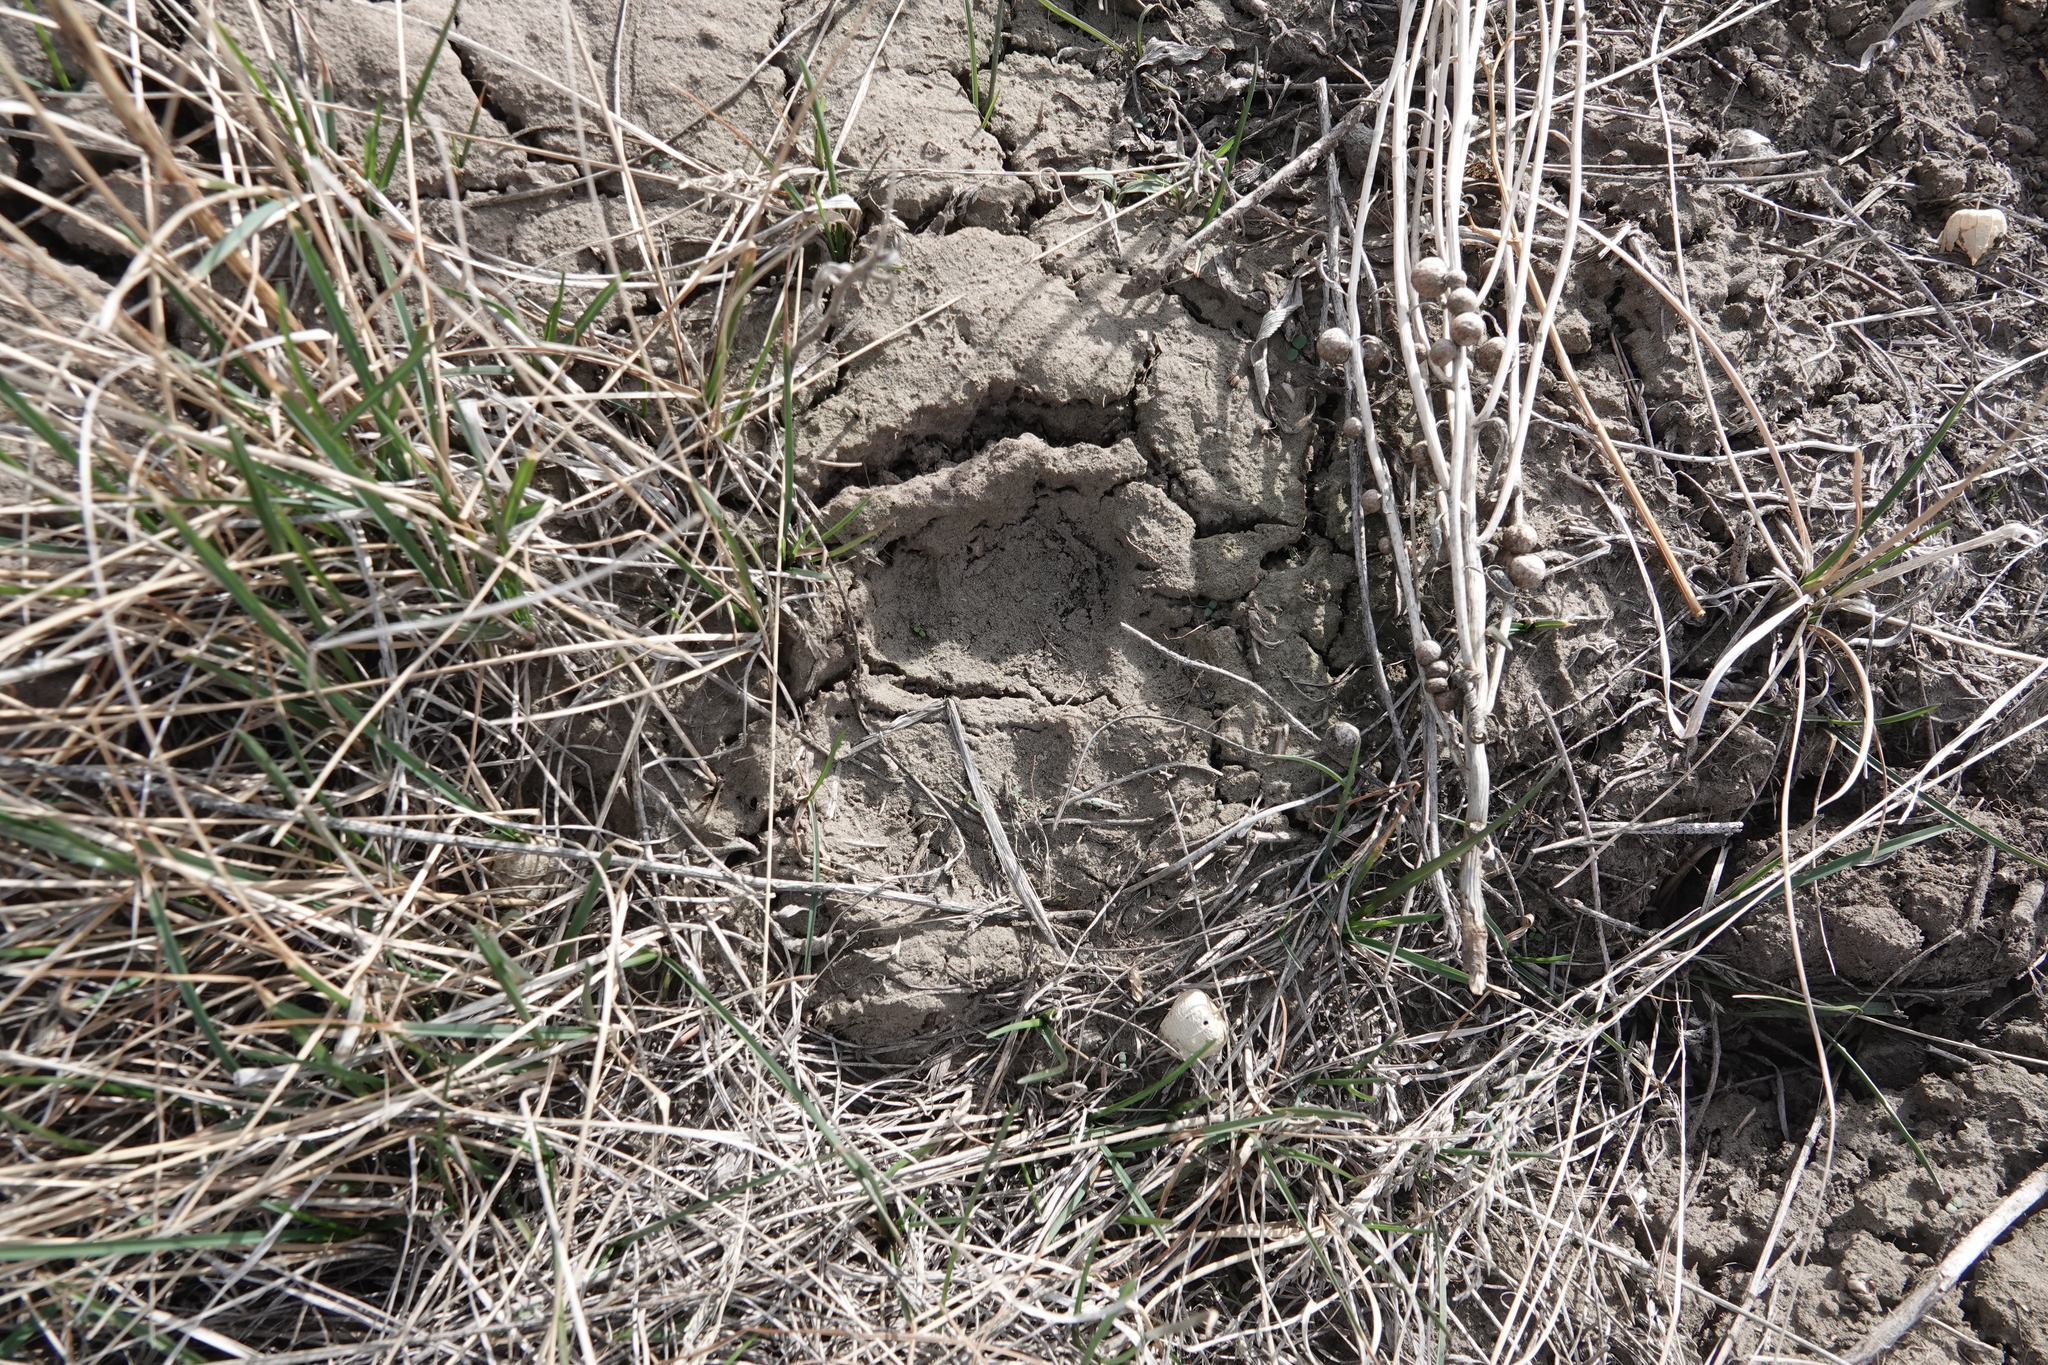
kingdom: Animalia
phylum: Chordata
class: Mammalia
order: Carnivora
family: Felidae
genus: Puma
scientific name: Puma concolor
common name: Puma
